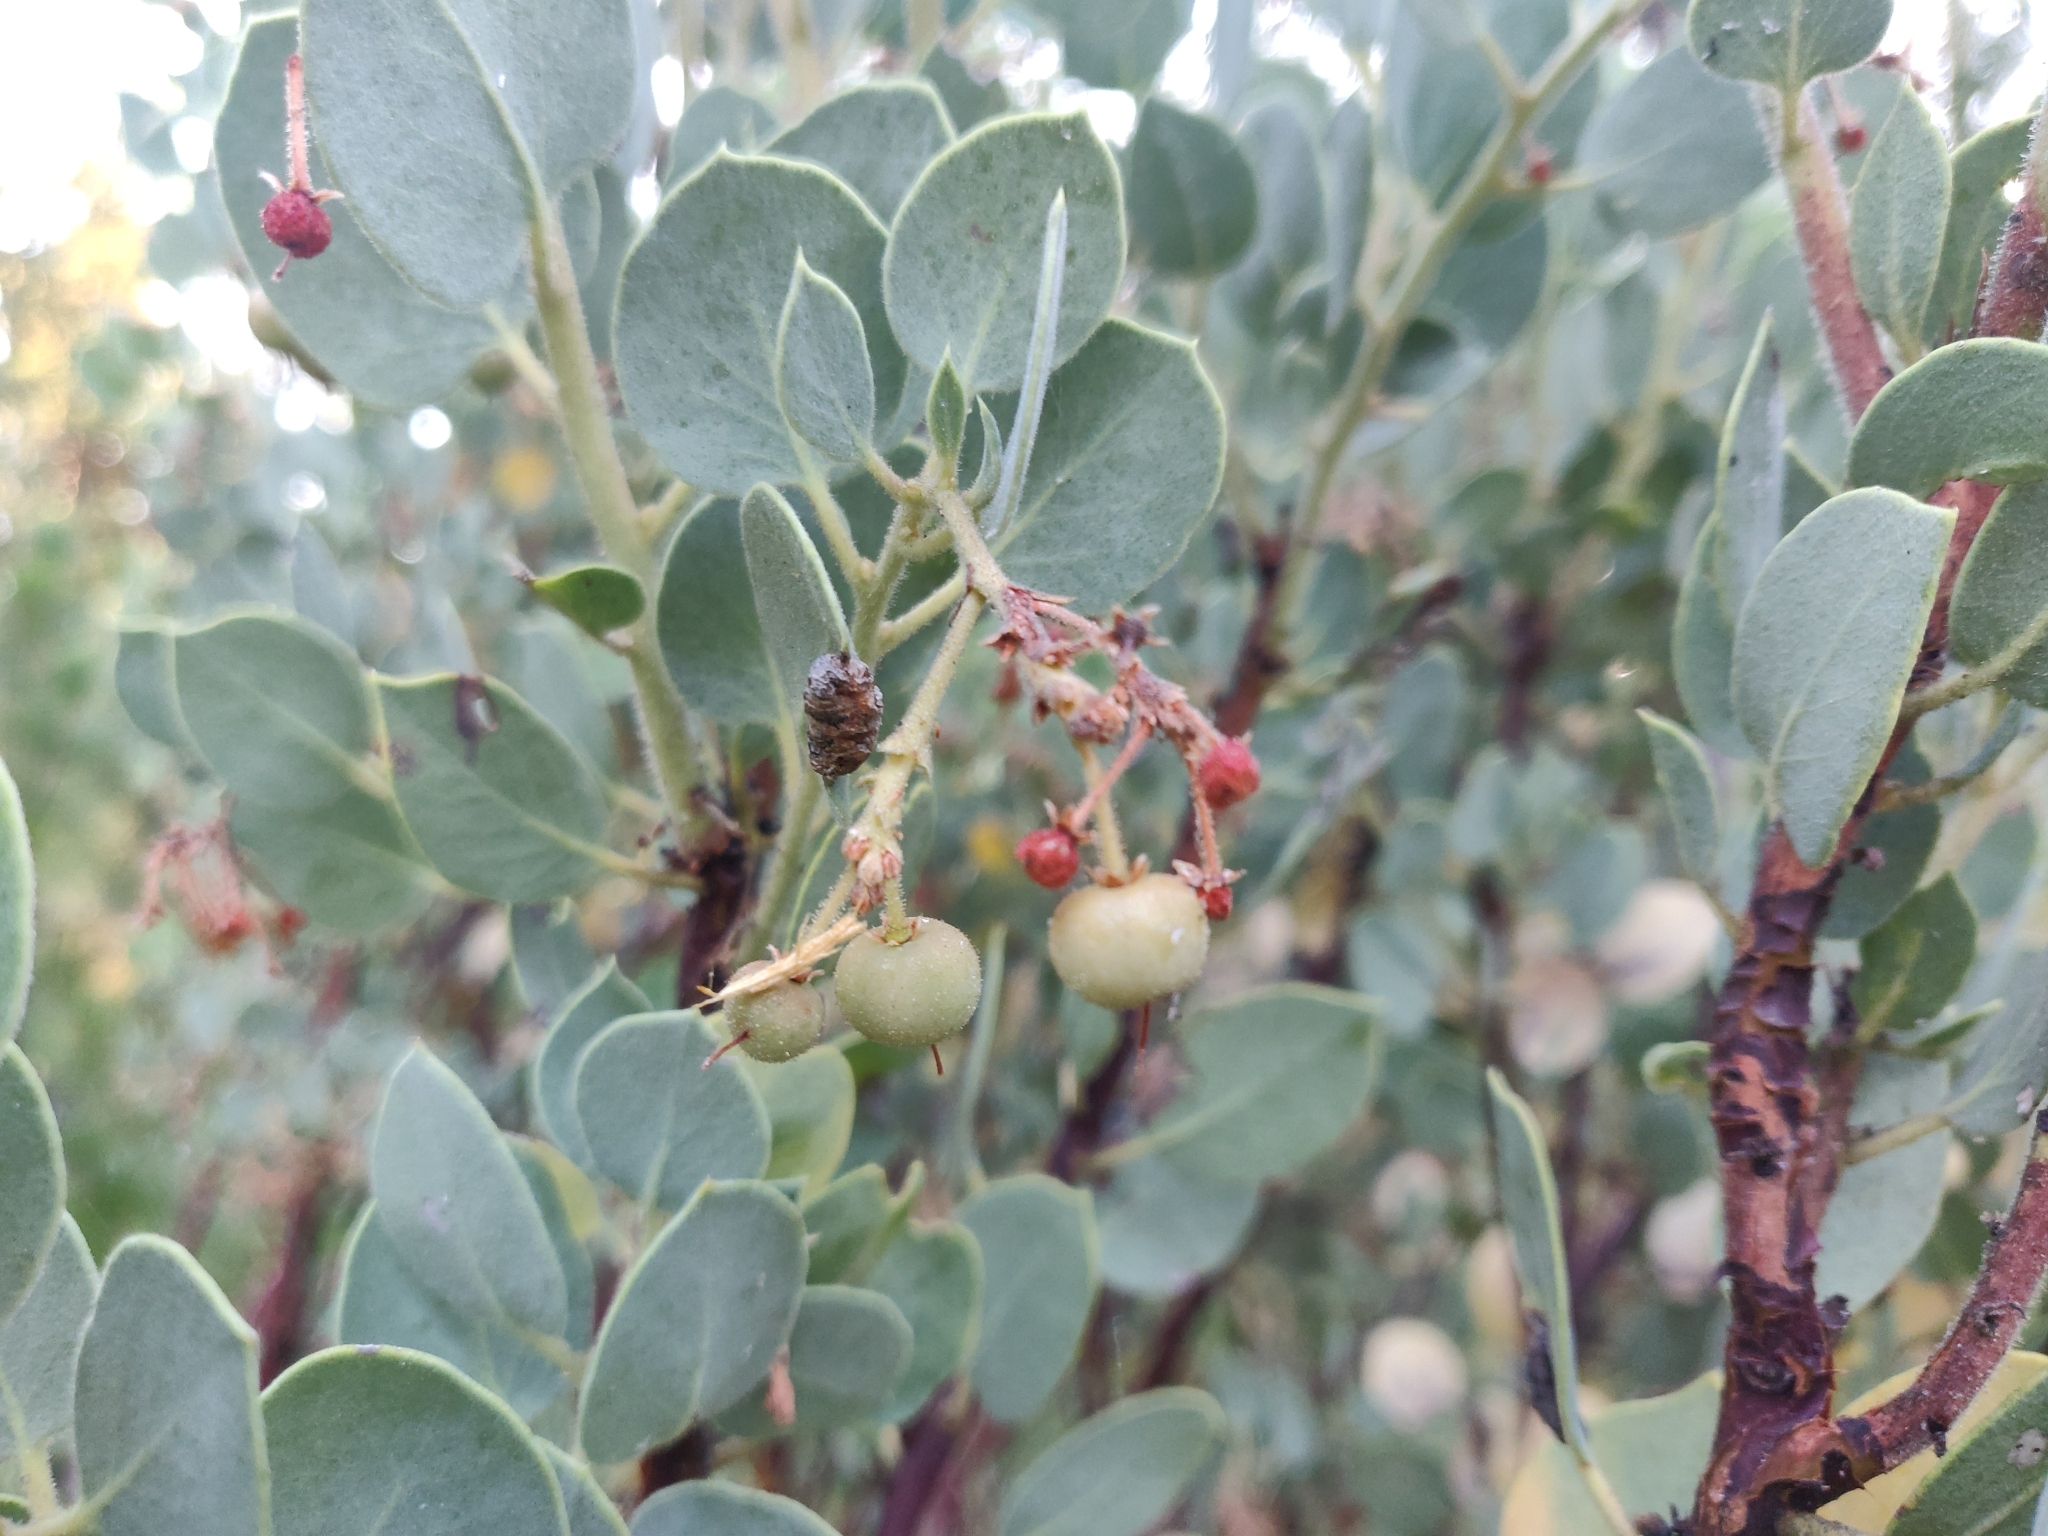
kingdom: Plantae
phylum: Tracheophyta
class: Magnoliopsida
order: Ericales
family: Ericaceae
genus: Arctostaphylos
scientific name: Arctostaphylos viscida
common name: White-leaf manzanita
